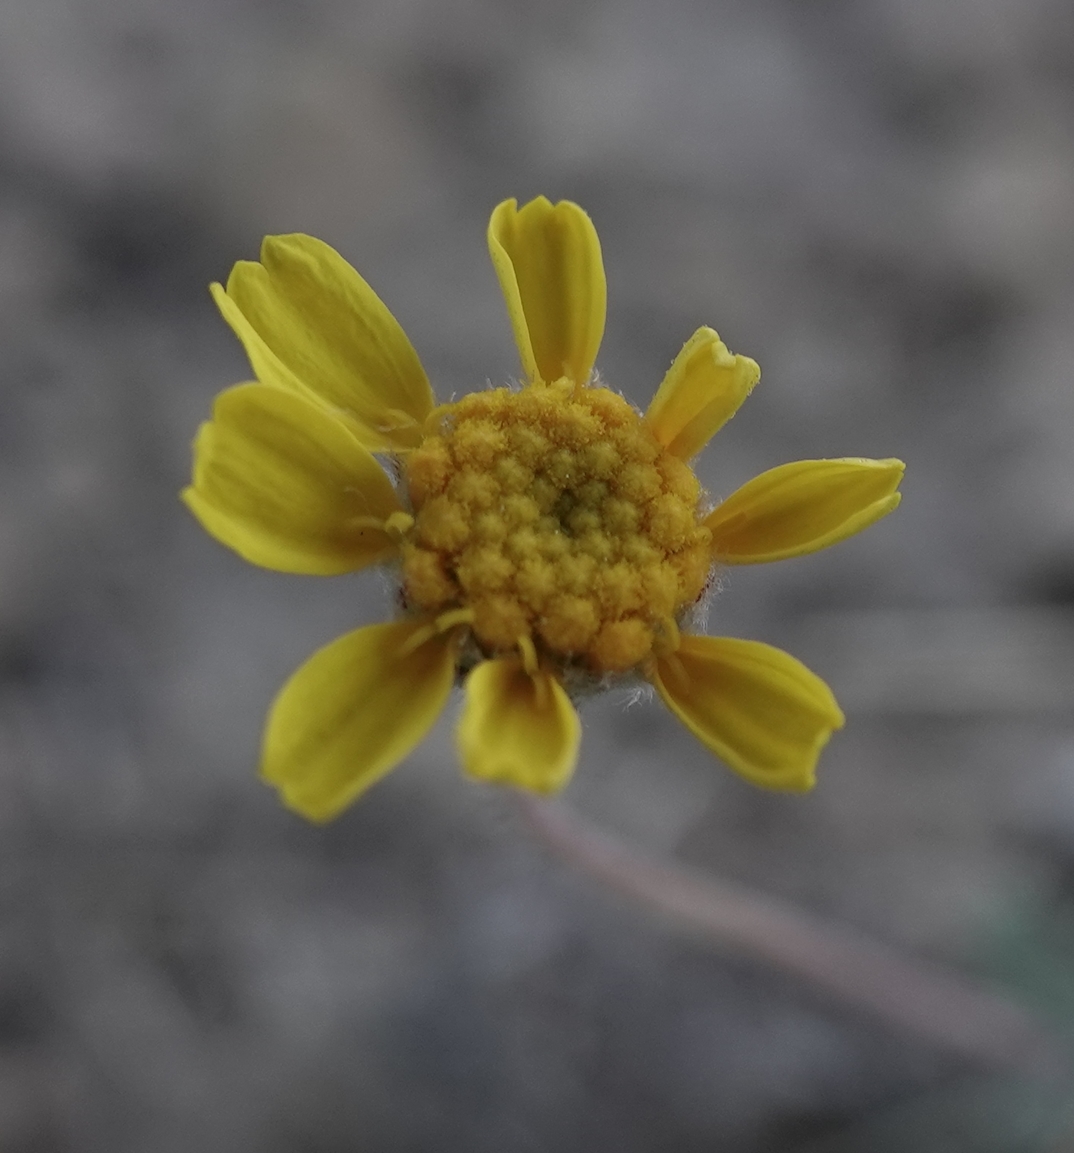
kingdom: Plantae
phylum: Tracheophyta
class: Magnoliopsida
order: Asterales
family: Asteraceae
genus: Tetraneuris
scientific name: Tetraneuris acaulis
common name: Butte marigold
